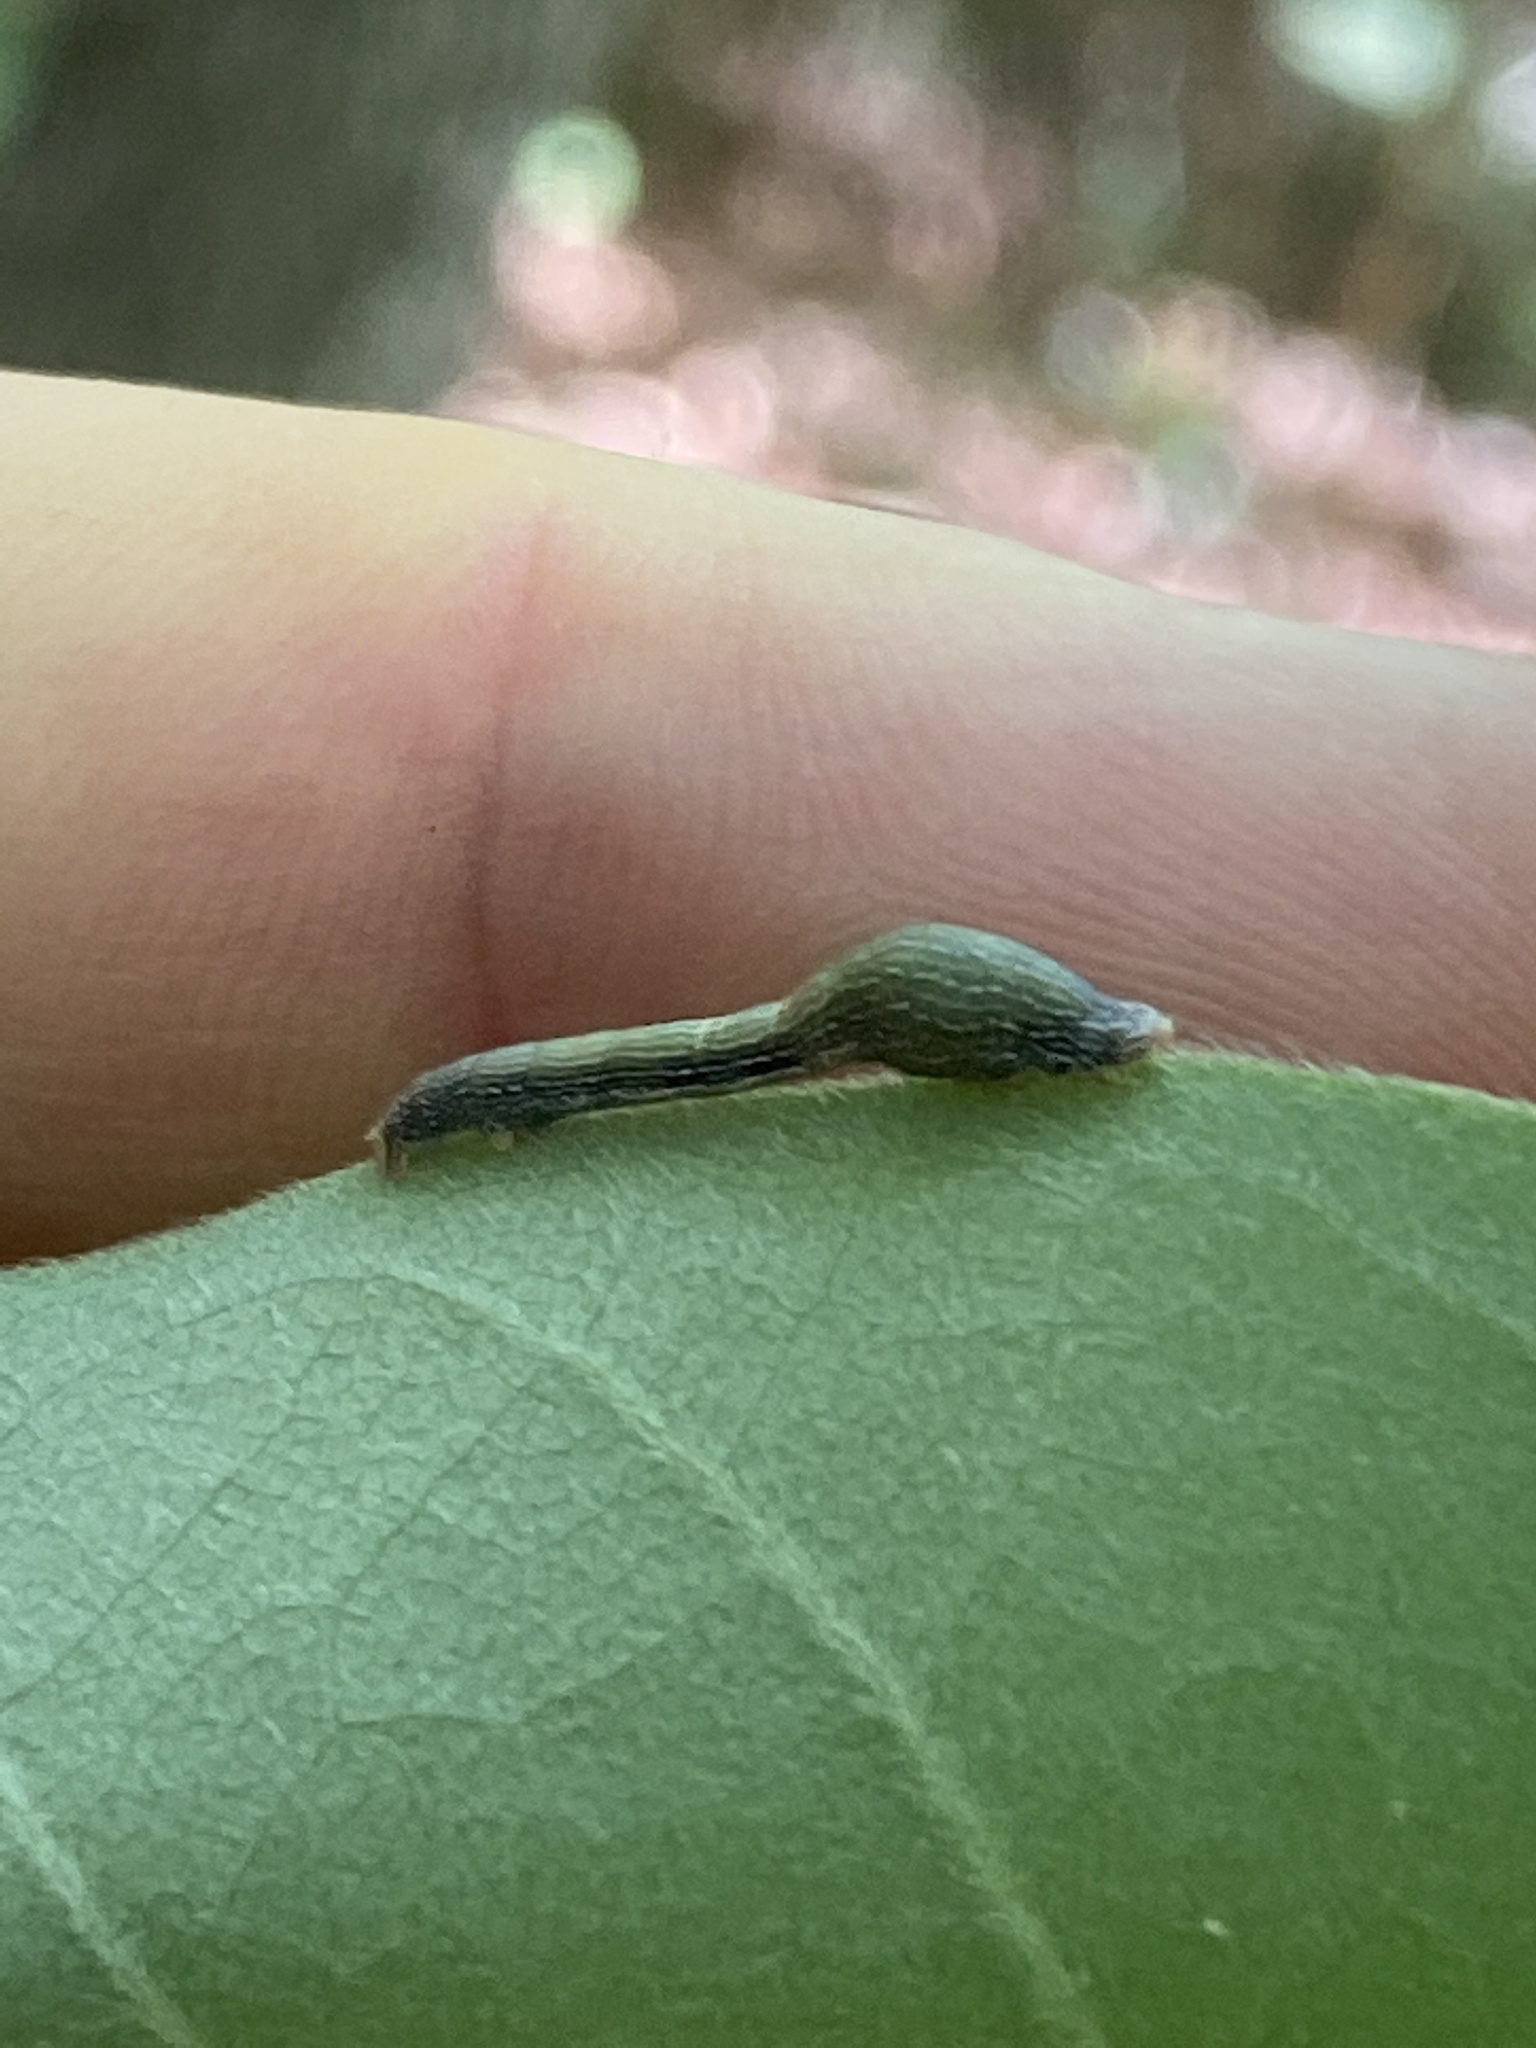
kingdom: Animalia
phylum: Arthropoda
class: Insecta
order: Lepidoptera
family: Geometridae
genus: Epimecis
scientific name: Epimecis hortaria
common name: Tulip-tree beauty
